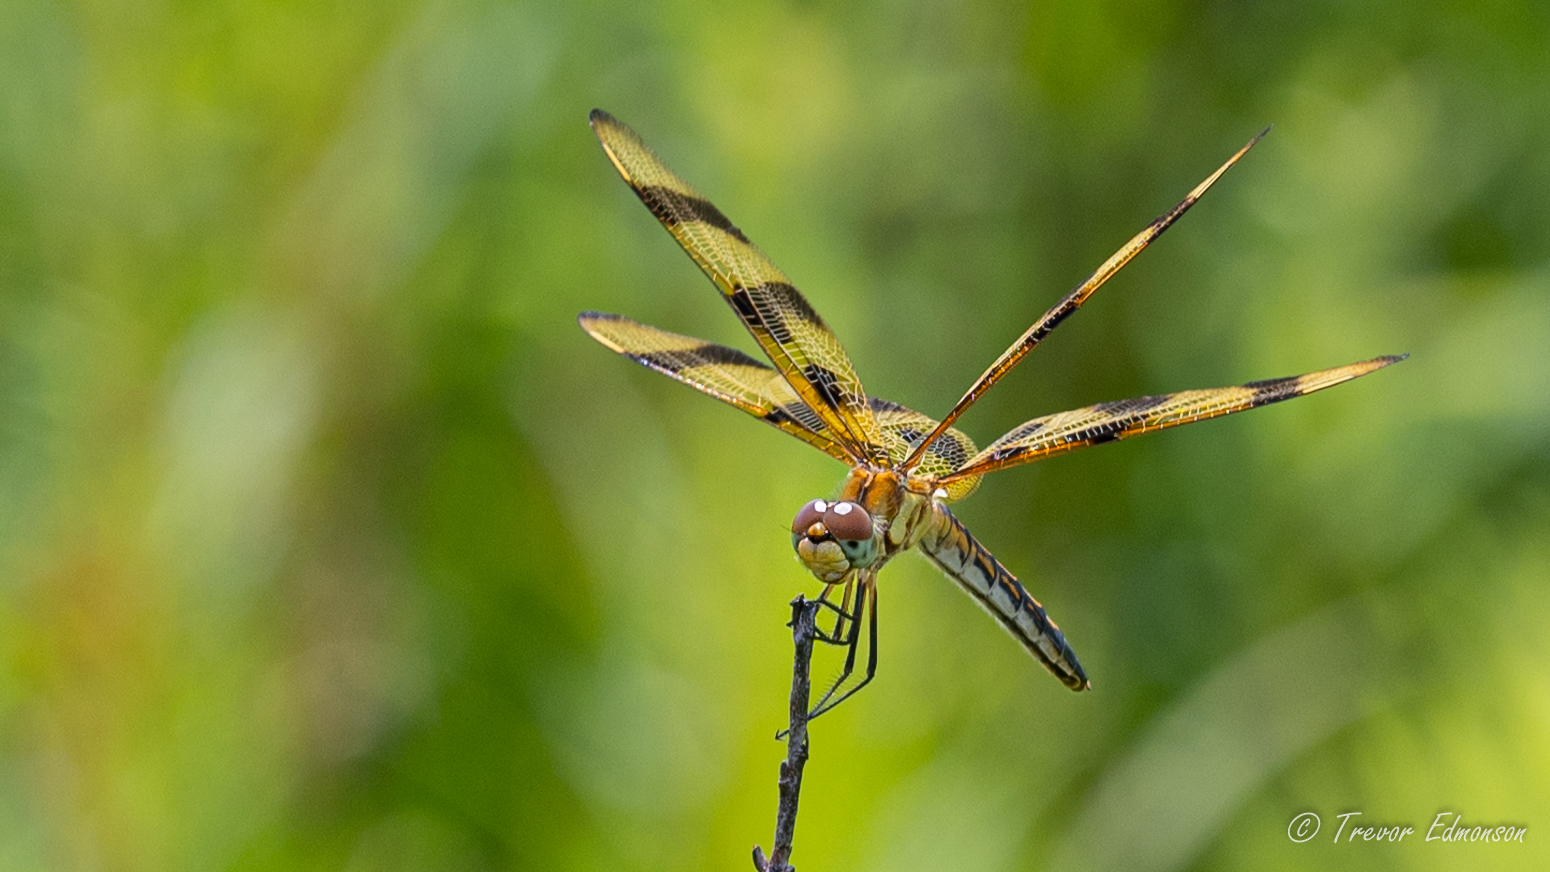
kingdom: Animalia
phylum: Arthropoda
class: Insecta
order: Odonata
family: Libellulidae
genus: Celithemis
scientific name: Celithemis eponina
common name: Halloween pennant
